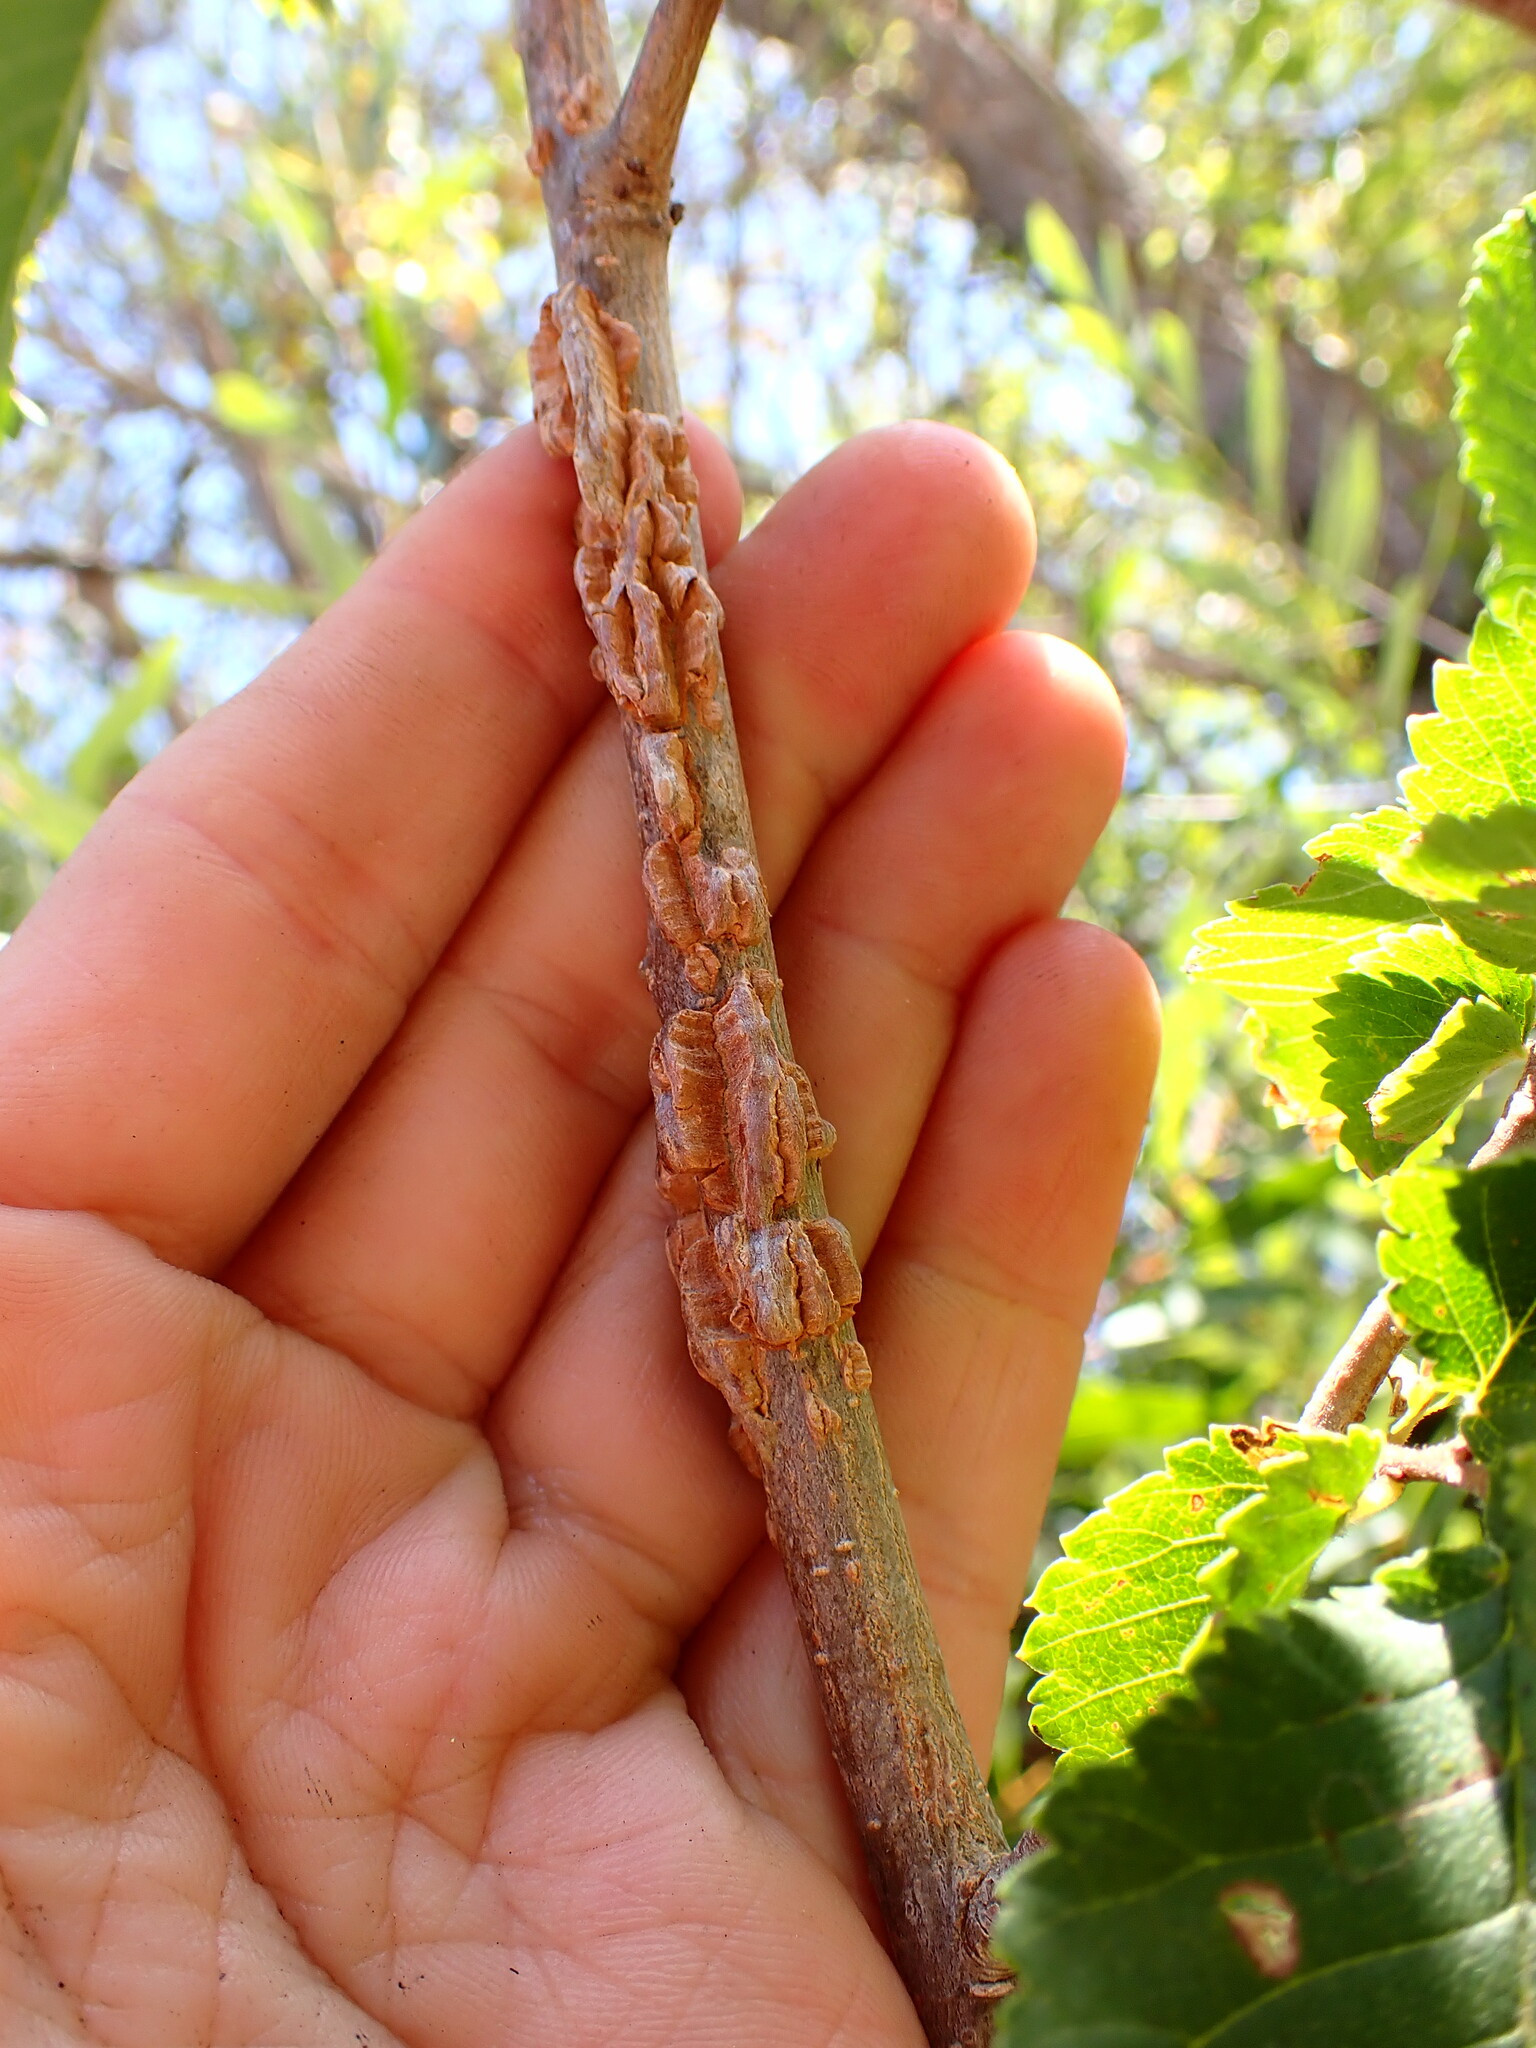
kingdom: Plantae
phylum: Tracheophyta
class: Magnoliopsida
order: Rosales
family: Ulmaceae
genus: Ulmus
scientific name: Ulmus alata
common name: Winged elm
